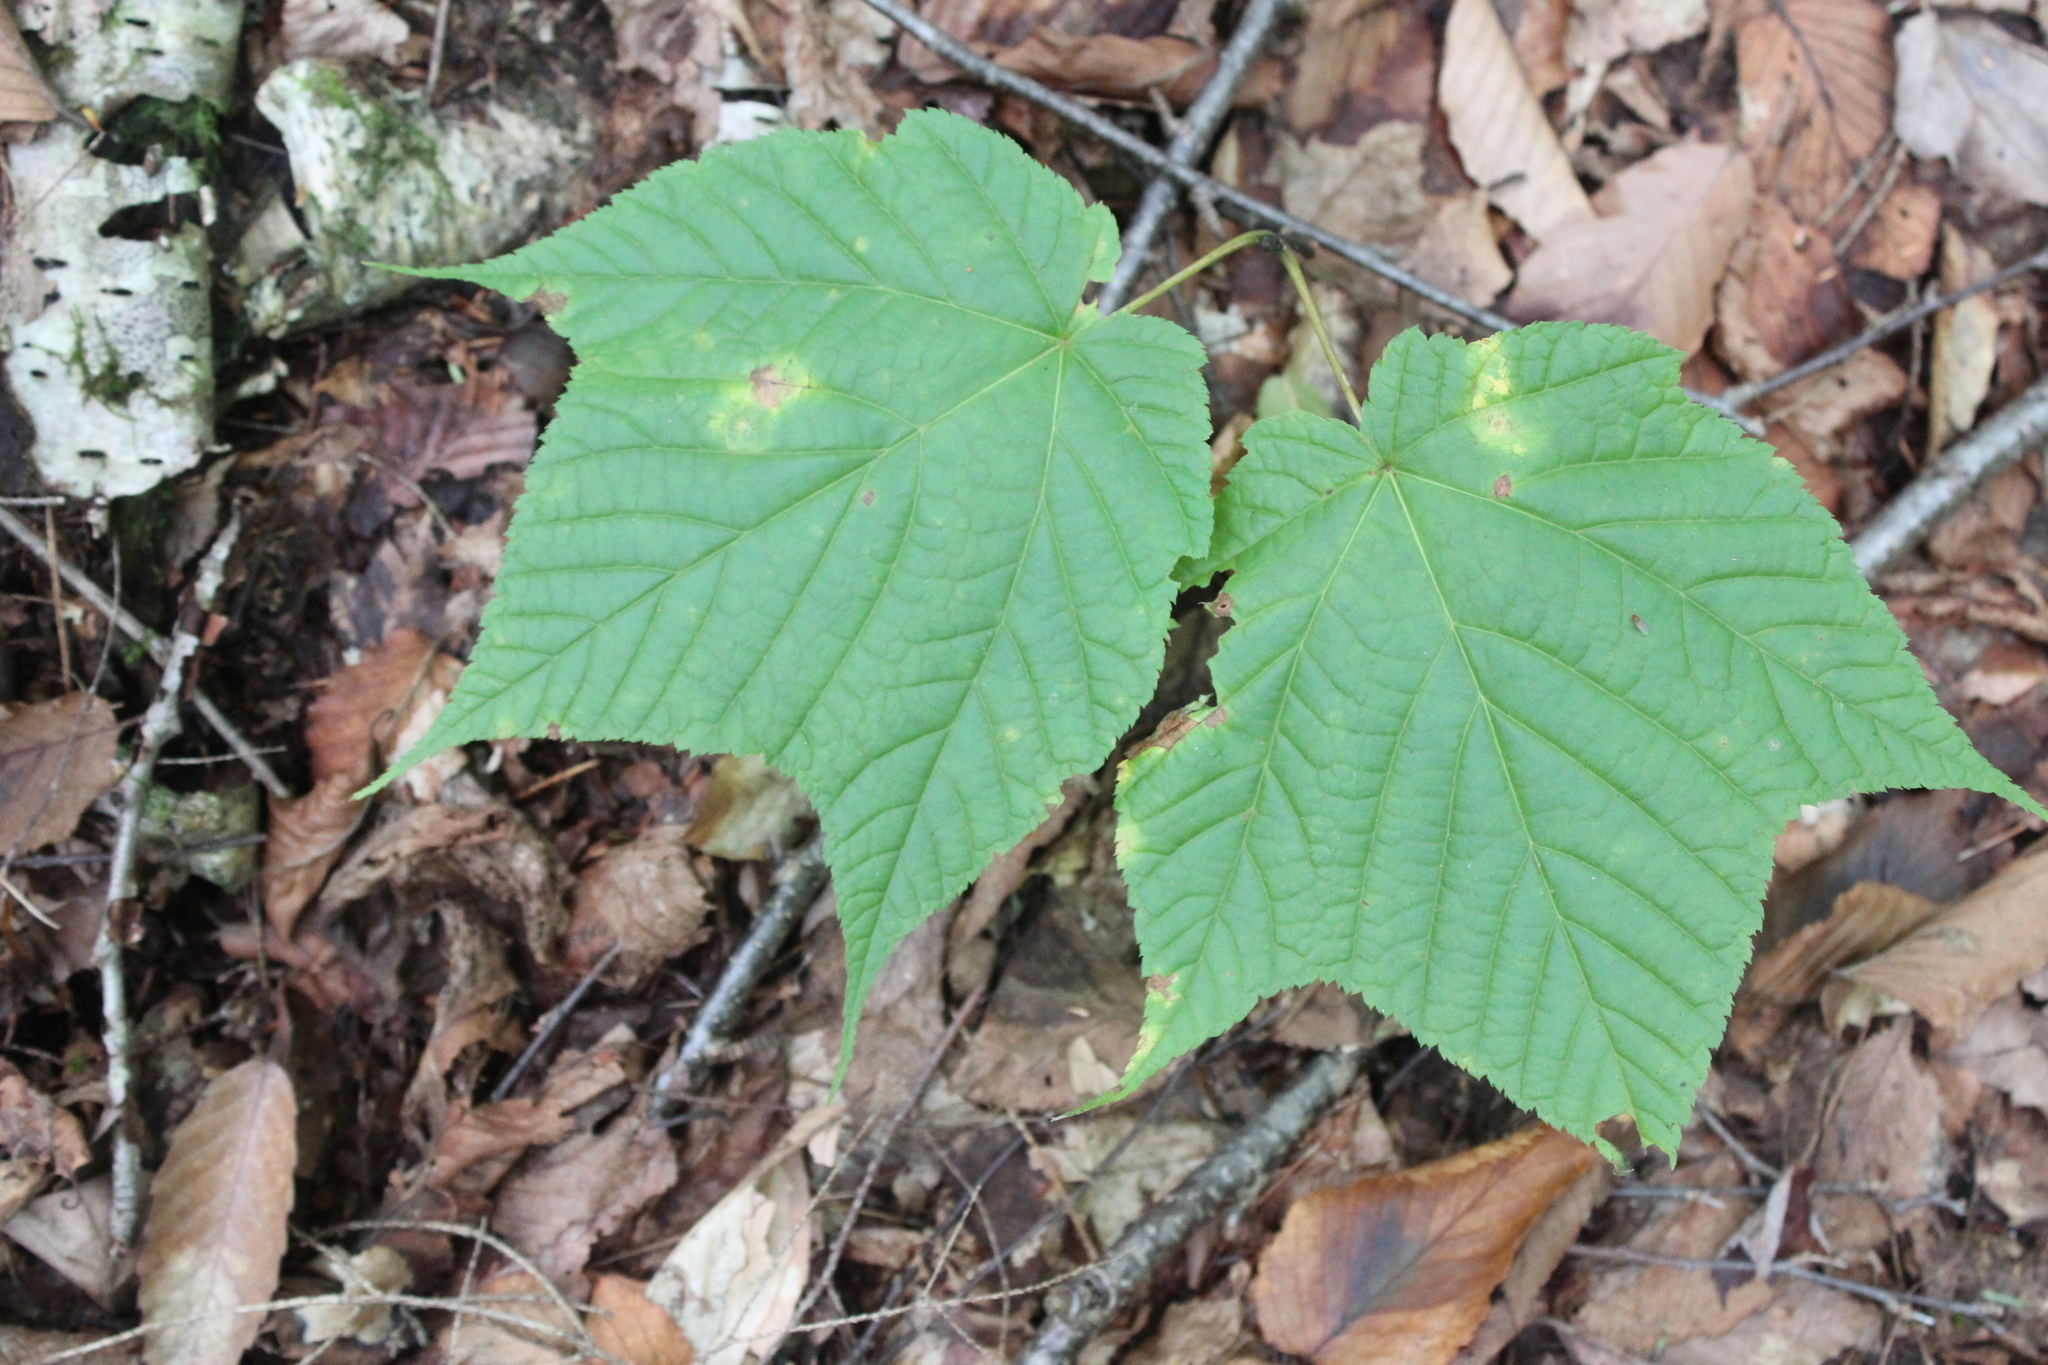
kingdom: Plantae
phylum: Tracheophyta
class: Magnoliopsida
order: Sapindales
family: Sapindaceae
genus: Acer
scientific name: Acer pensylvanicum
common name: Moosewood
